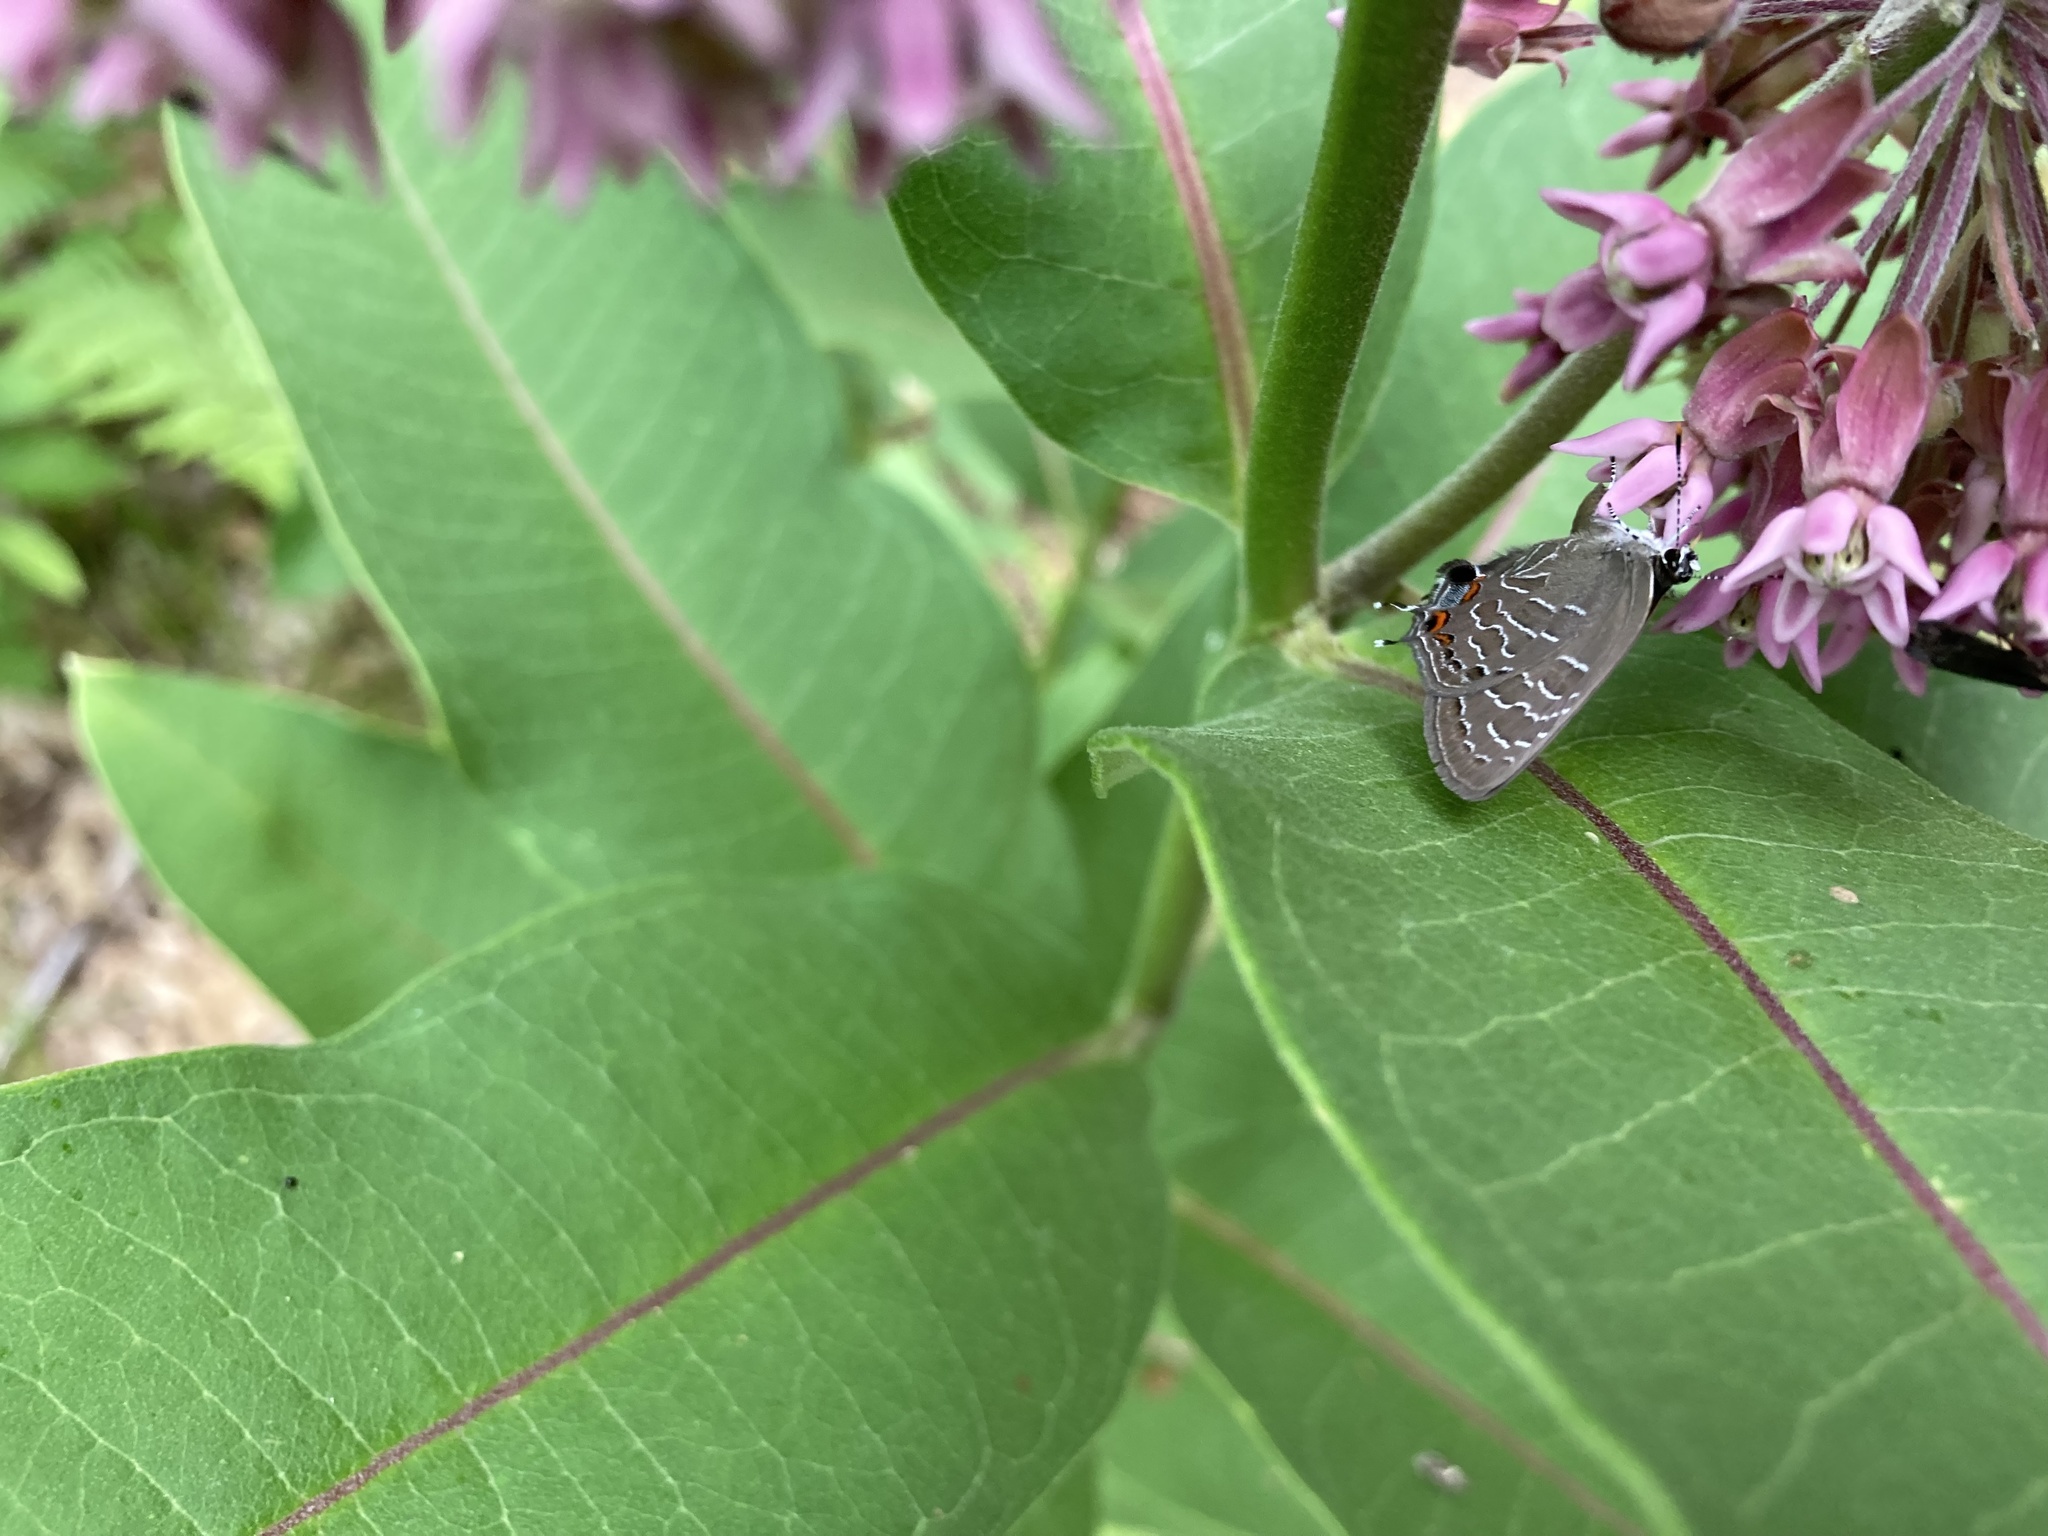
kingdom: Animalia
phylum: Arthropoda
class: Insecta
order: Lepidoptera
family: Lycaenidae
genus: Satyrium
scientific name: Satyrium liparops
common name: Striped hairstreak
